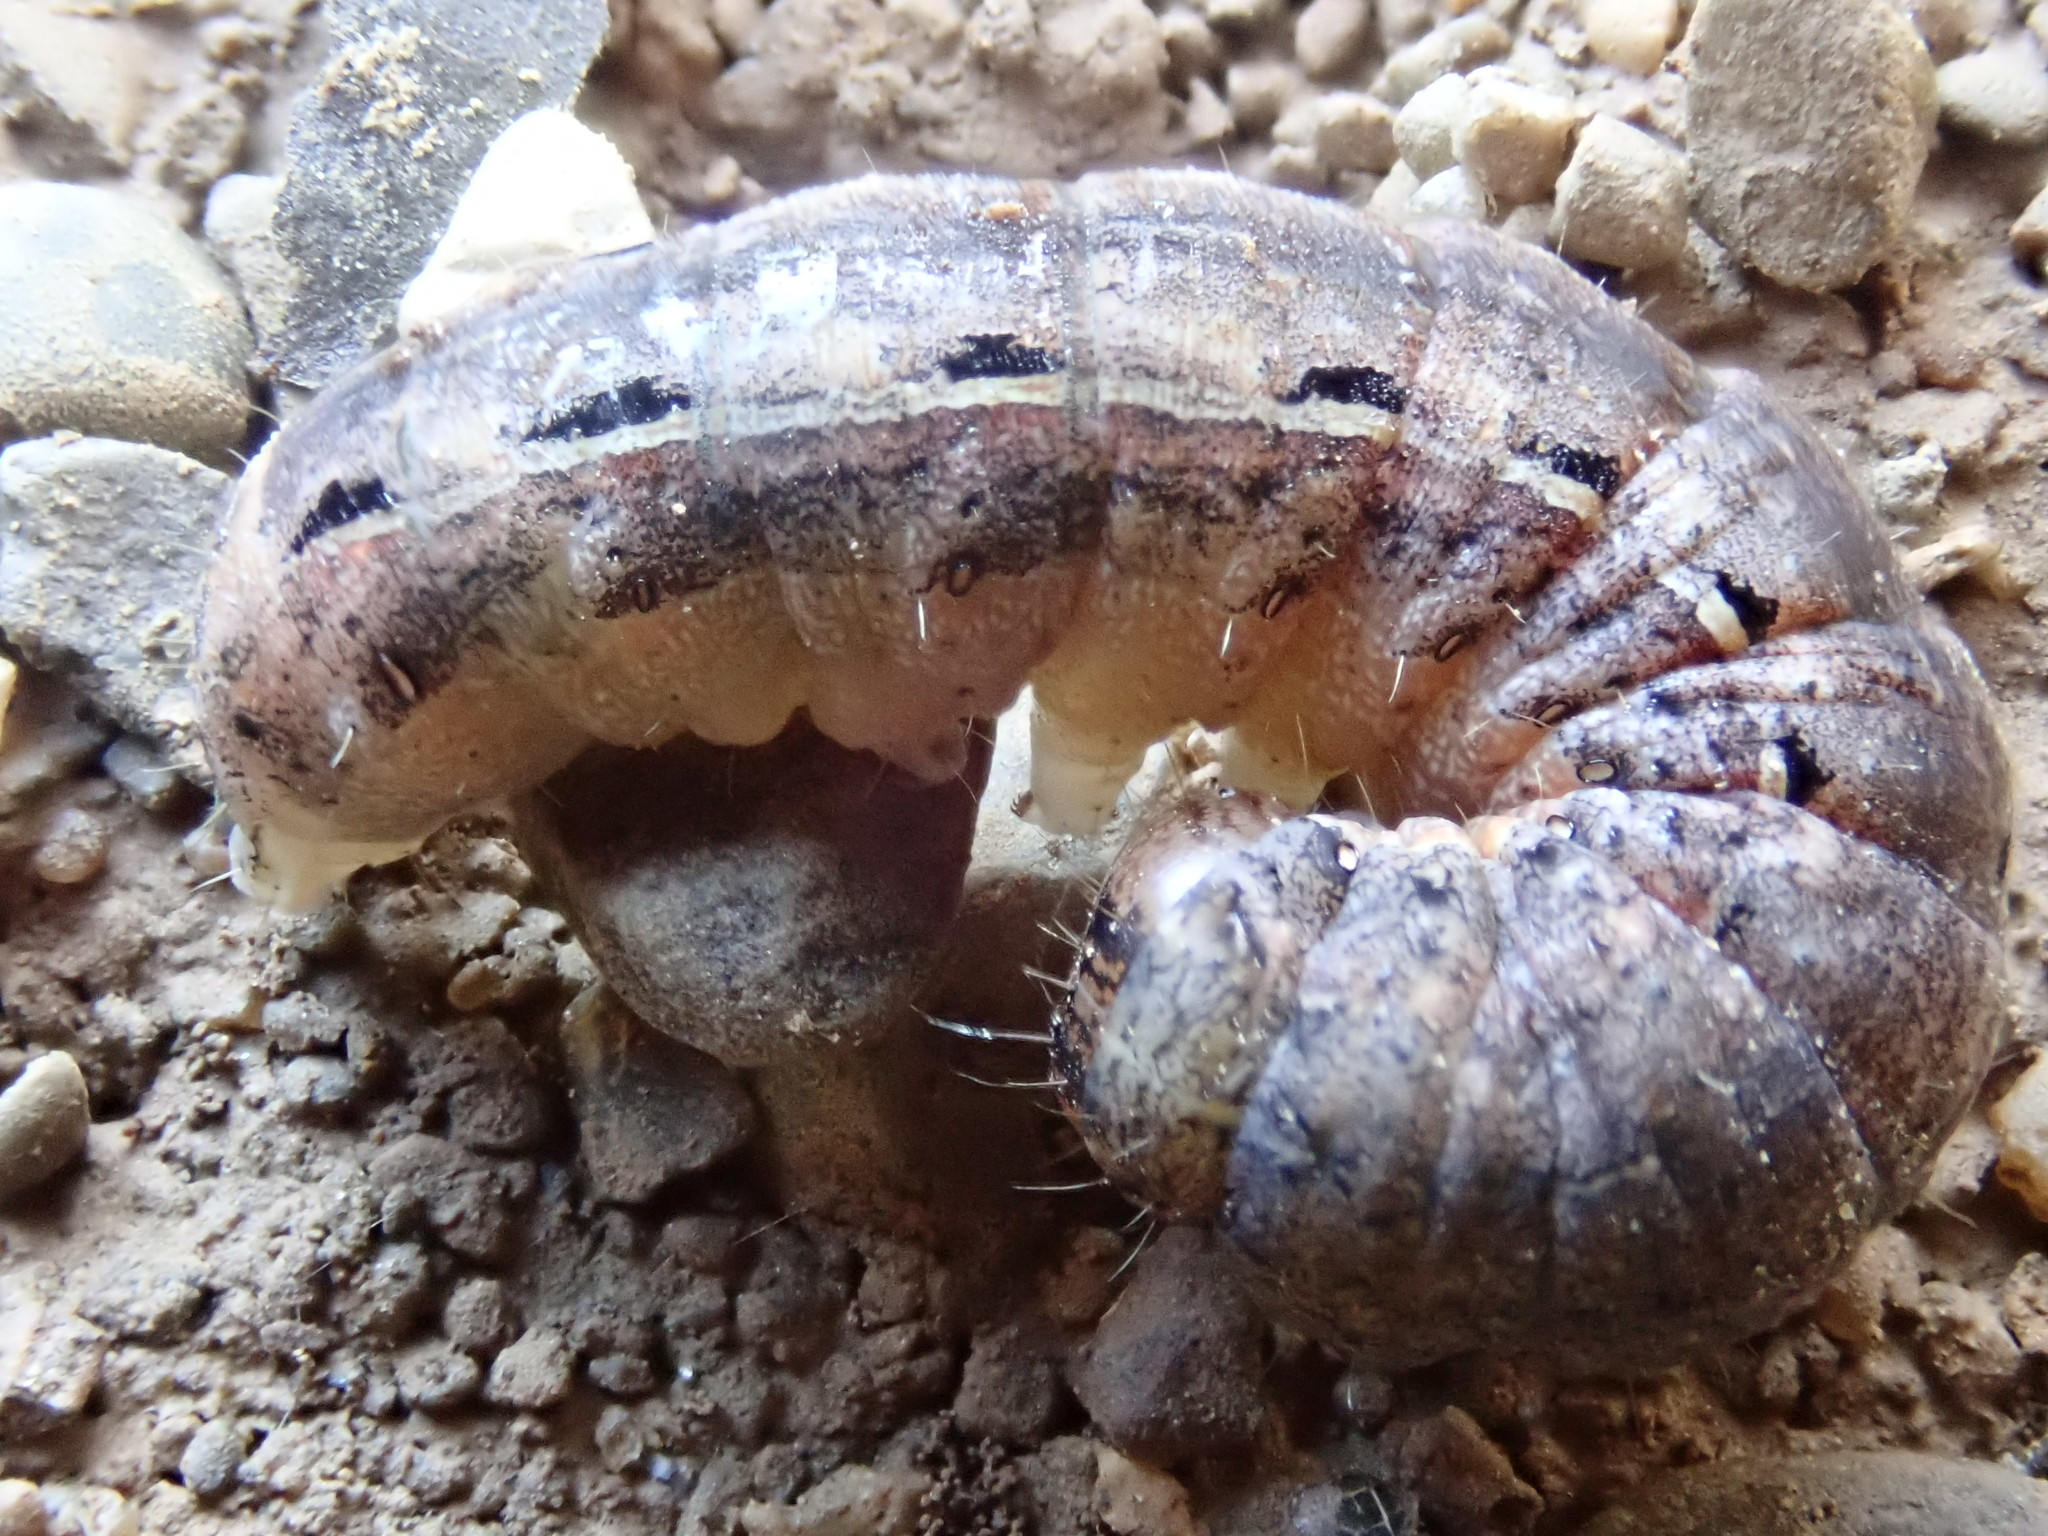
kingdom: Animalia
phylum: Arthropoda
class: Insecta
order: Lepidoptera
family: Noctuidae
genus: Noctua
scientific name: Noctua pronuba
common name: Large yellow underwing
